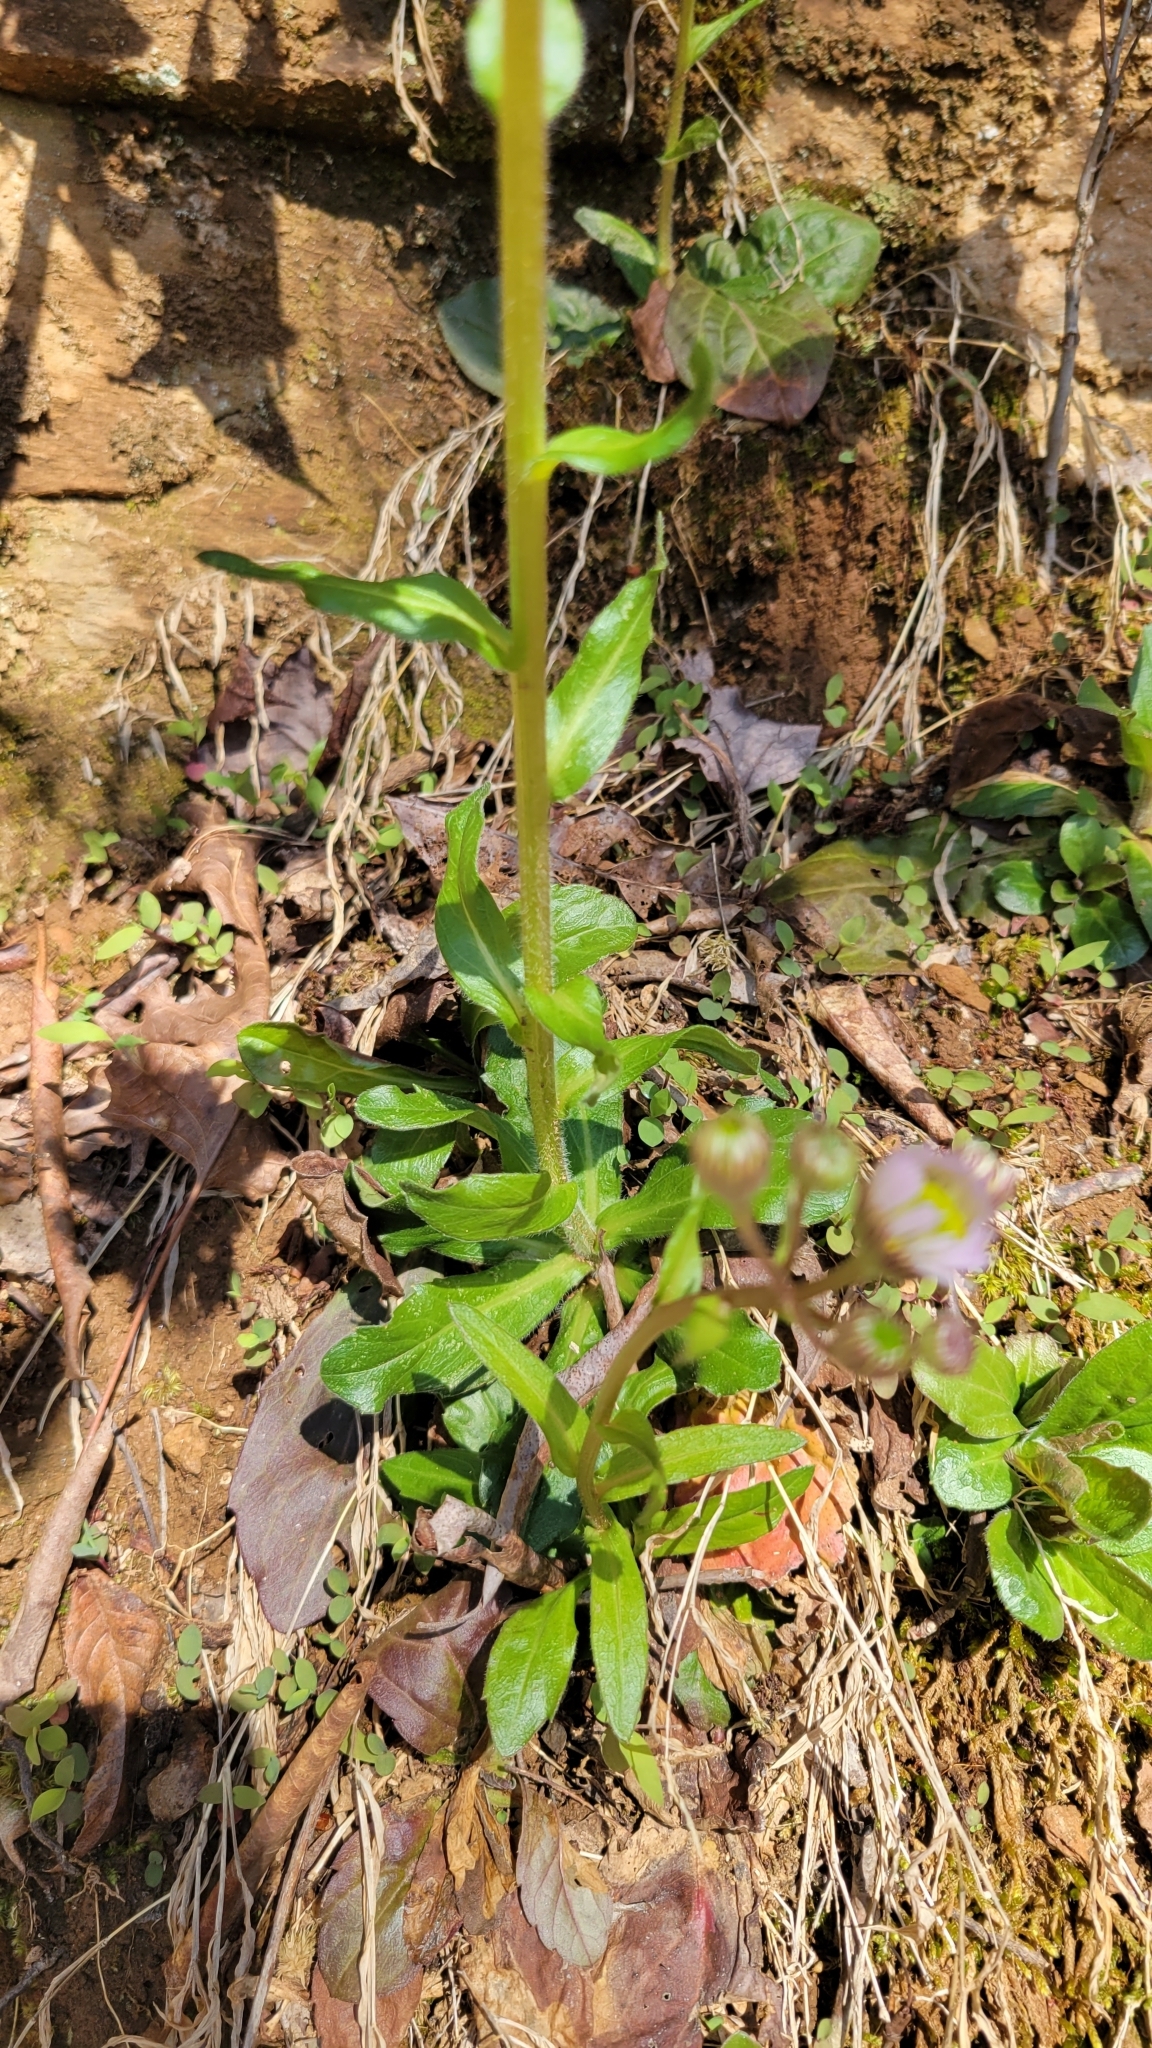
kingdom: Plantae
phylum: Tracheophyta
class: Magnoliopsida
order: Asterales
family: Asteraceae
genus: Erigeron
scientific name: Erigeron pulchellus
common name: Hairy fleabane
